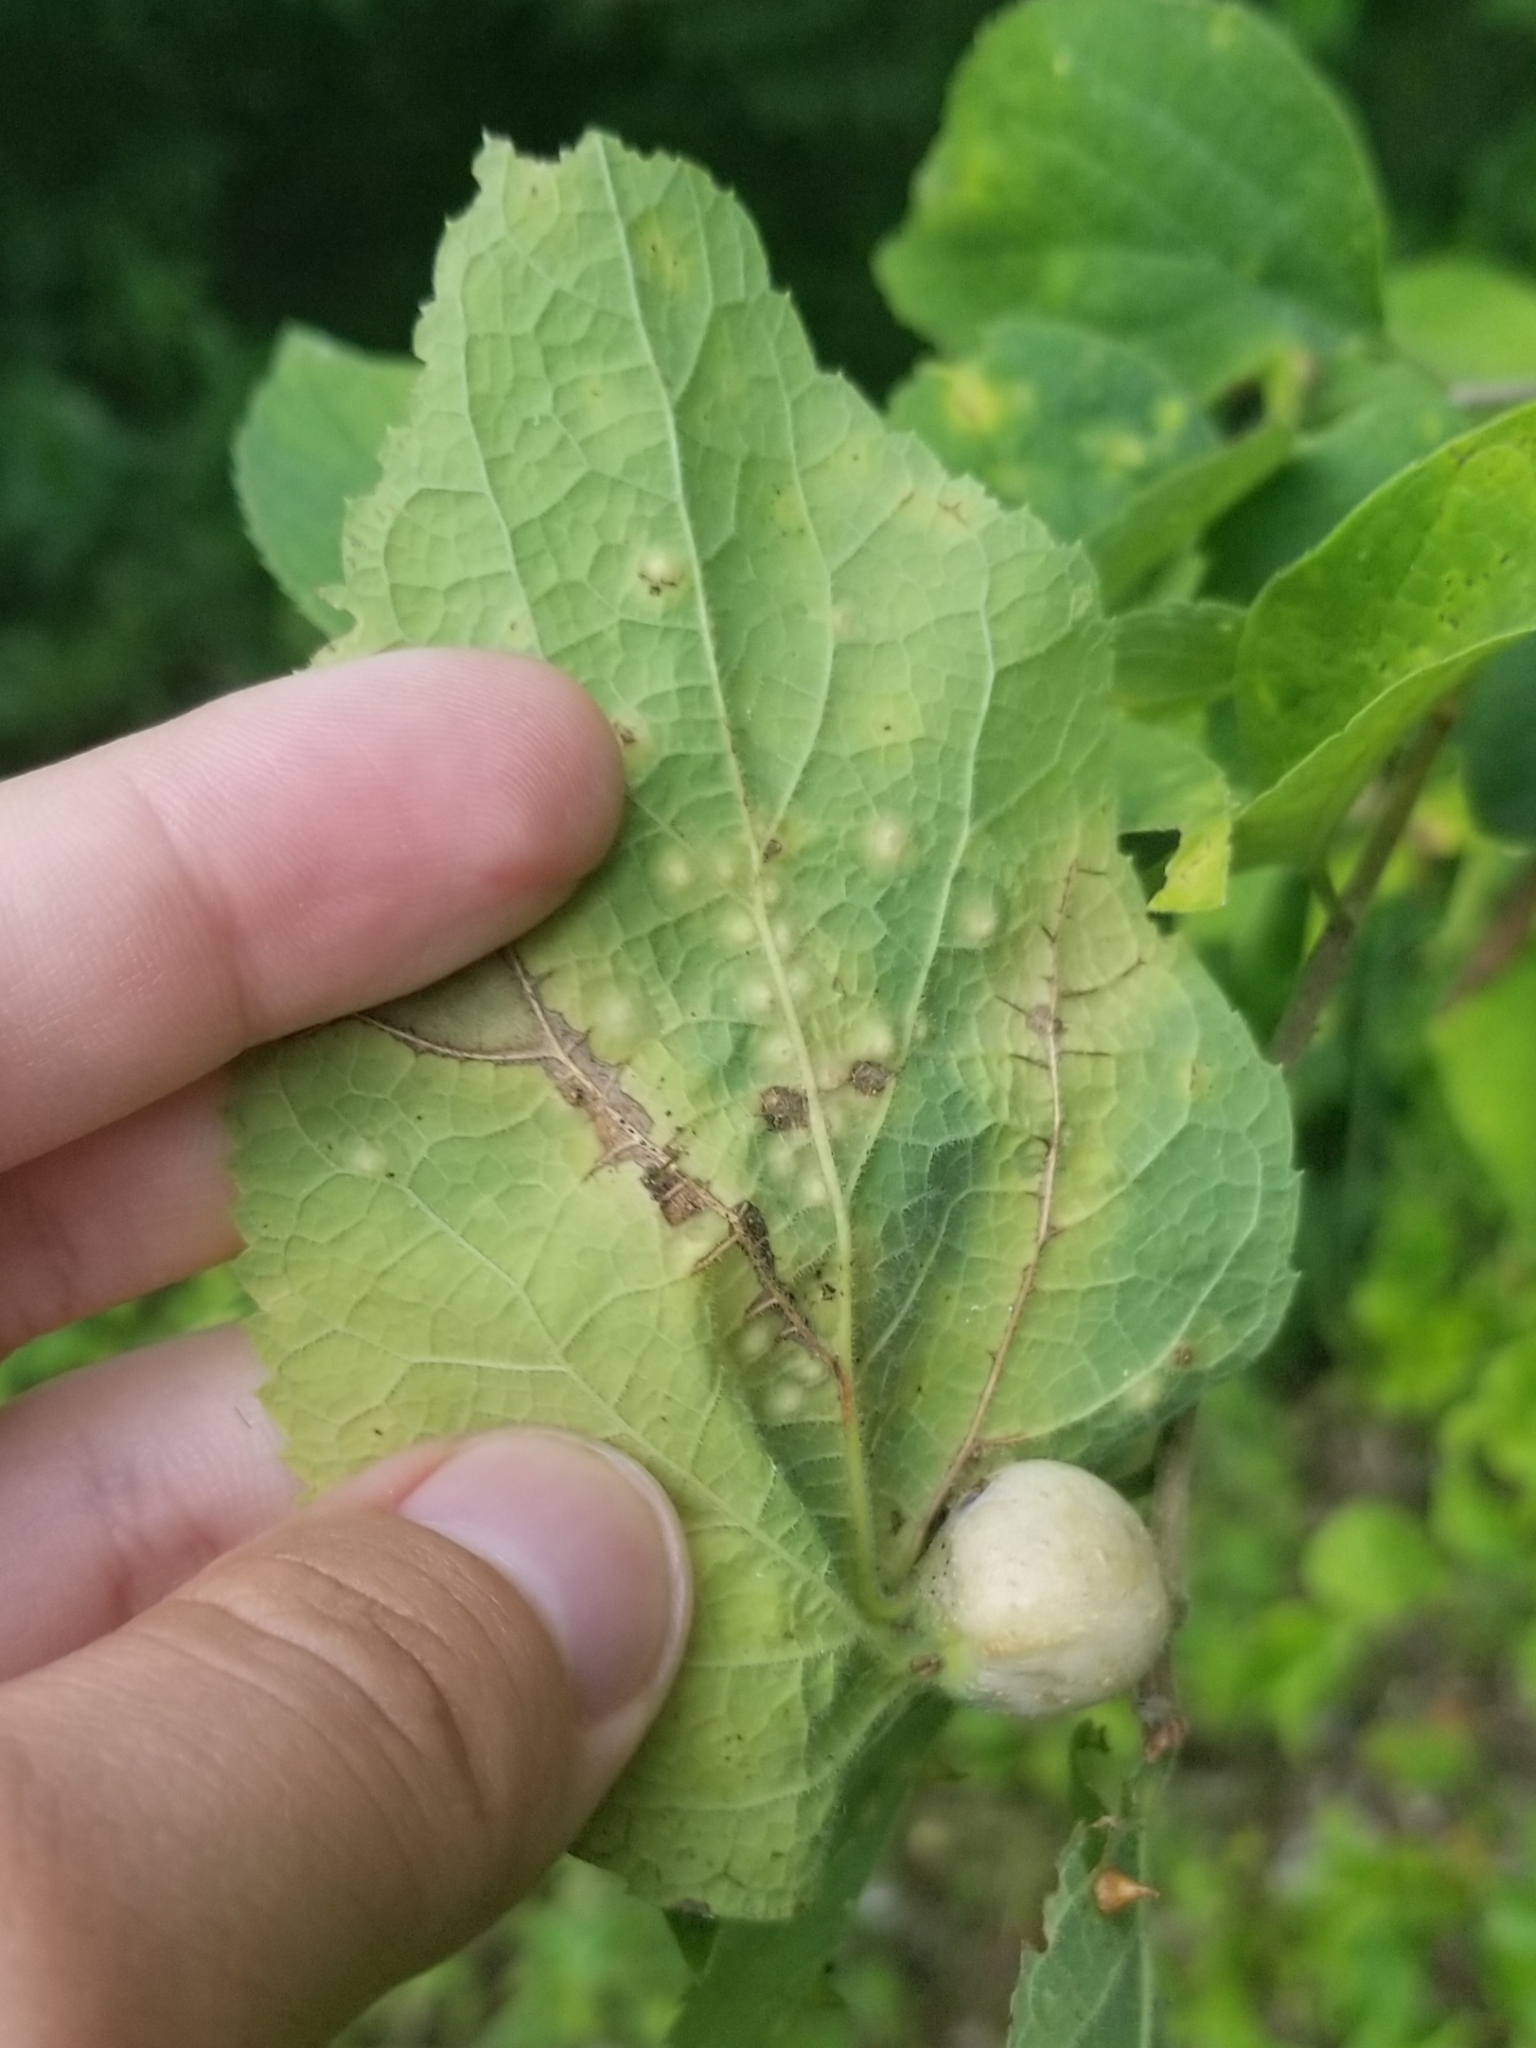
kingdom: Animalia
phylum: Arthropoda
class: Insecta
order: Hemiptera
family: Aphalaridae
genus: Pachypsylla
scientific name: Pachypsylla venusta
